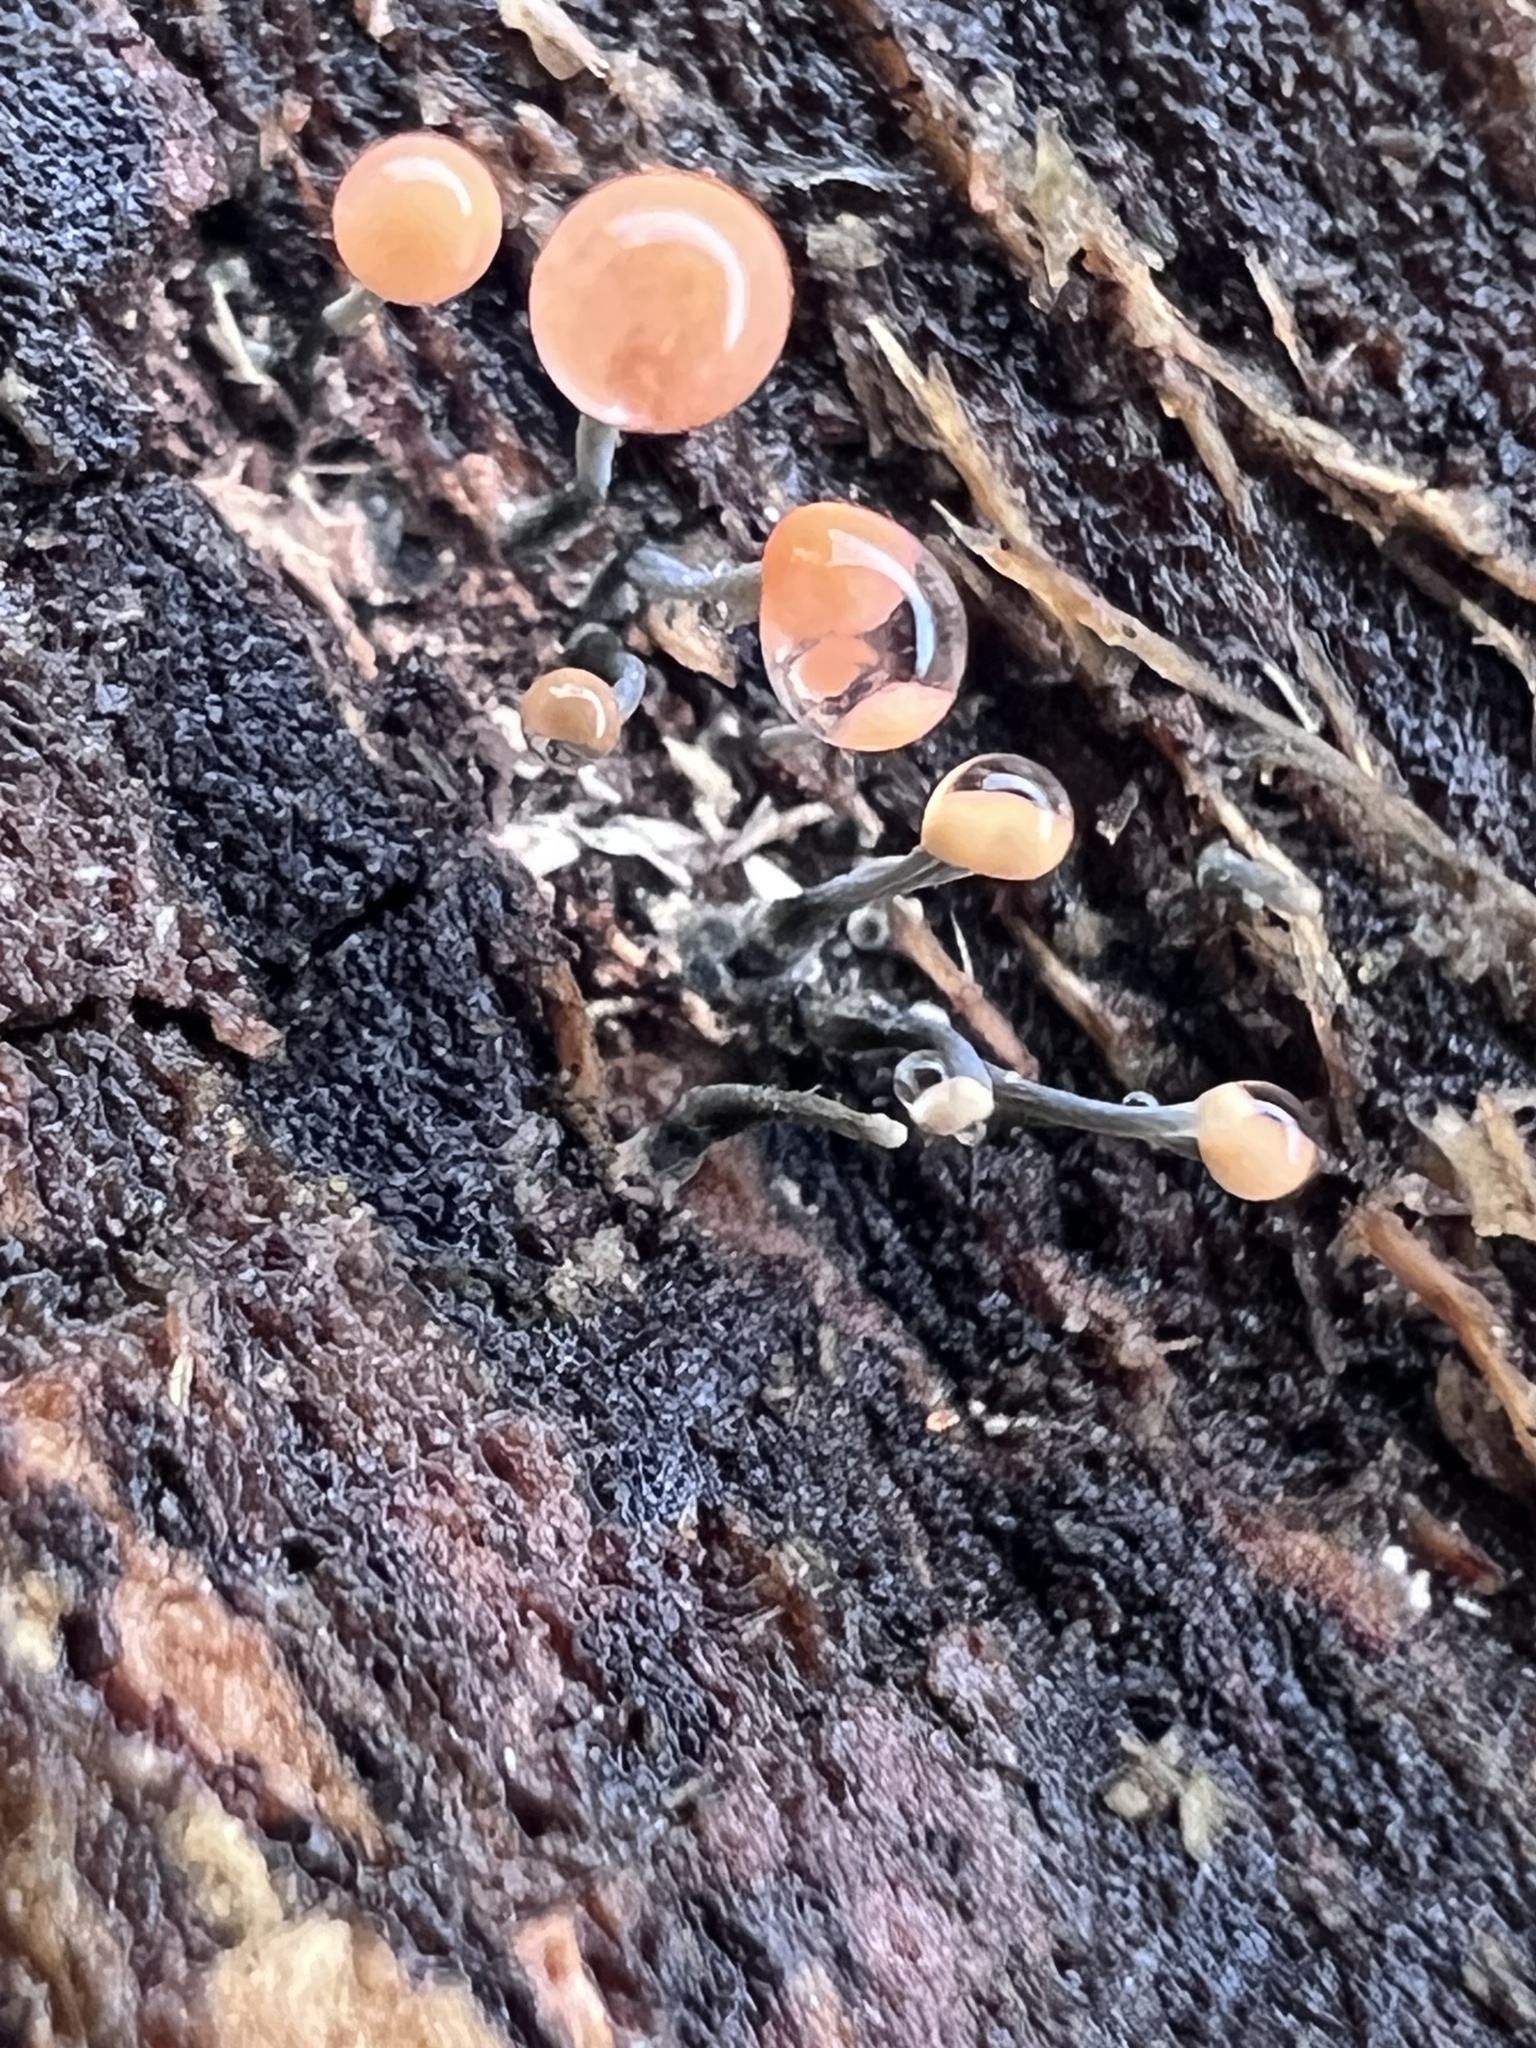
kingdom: Fungi
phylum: Ascomycota
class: Sordariomycetes
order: Hypocreales
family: Nectriaceae
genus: Nectria
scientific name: Nectria gracilipes
